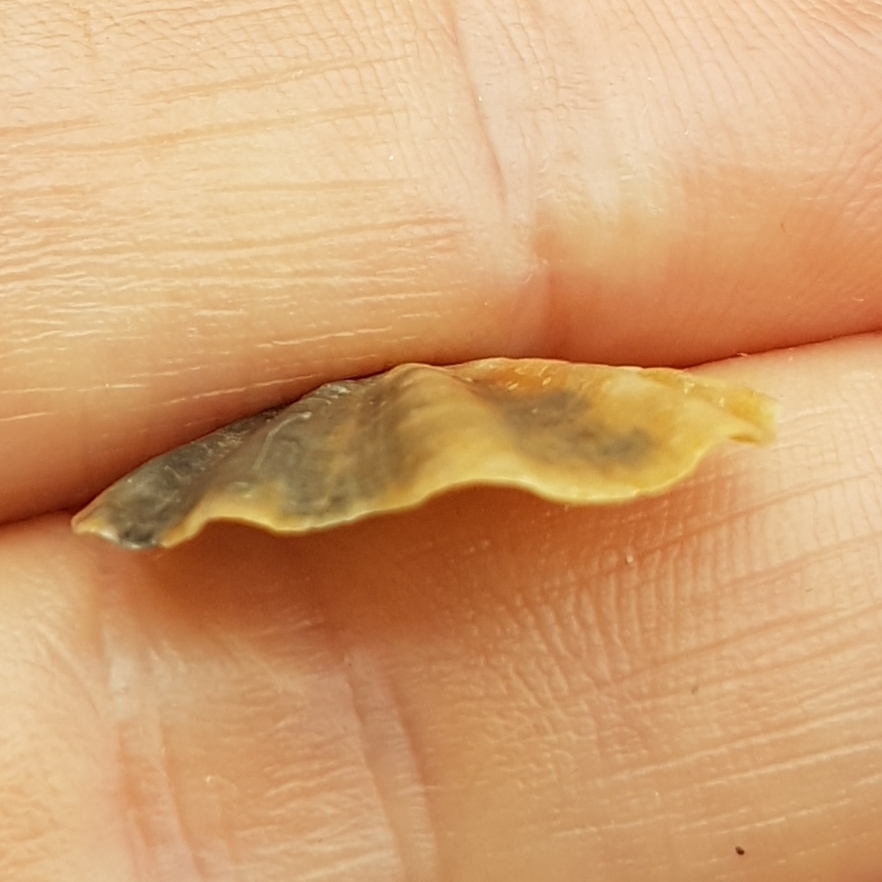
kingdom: Animalia
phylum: Mollusca
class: Bivalvia
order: Pectinida
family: Pectinidae
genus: Flexopecten
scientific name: Flexopecten flexuosus
